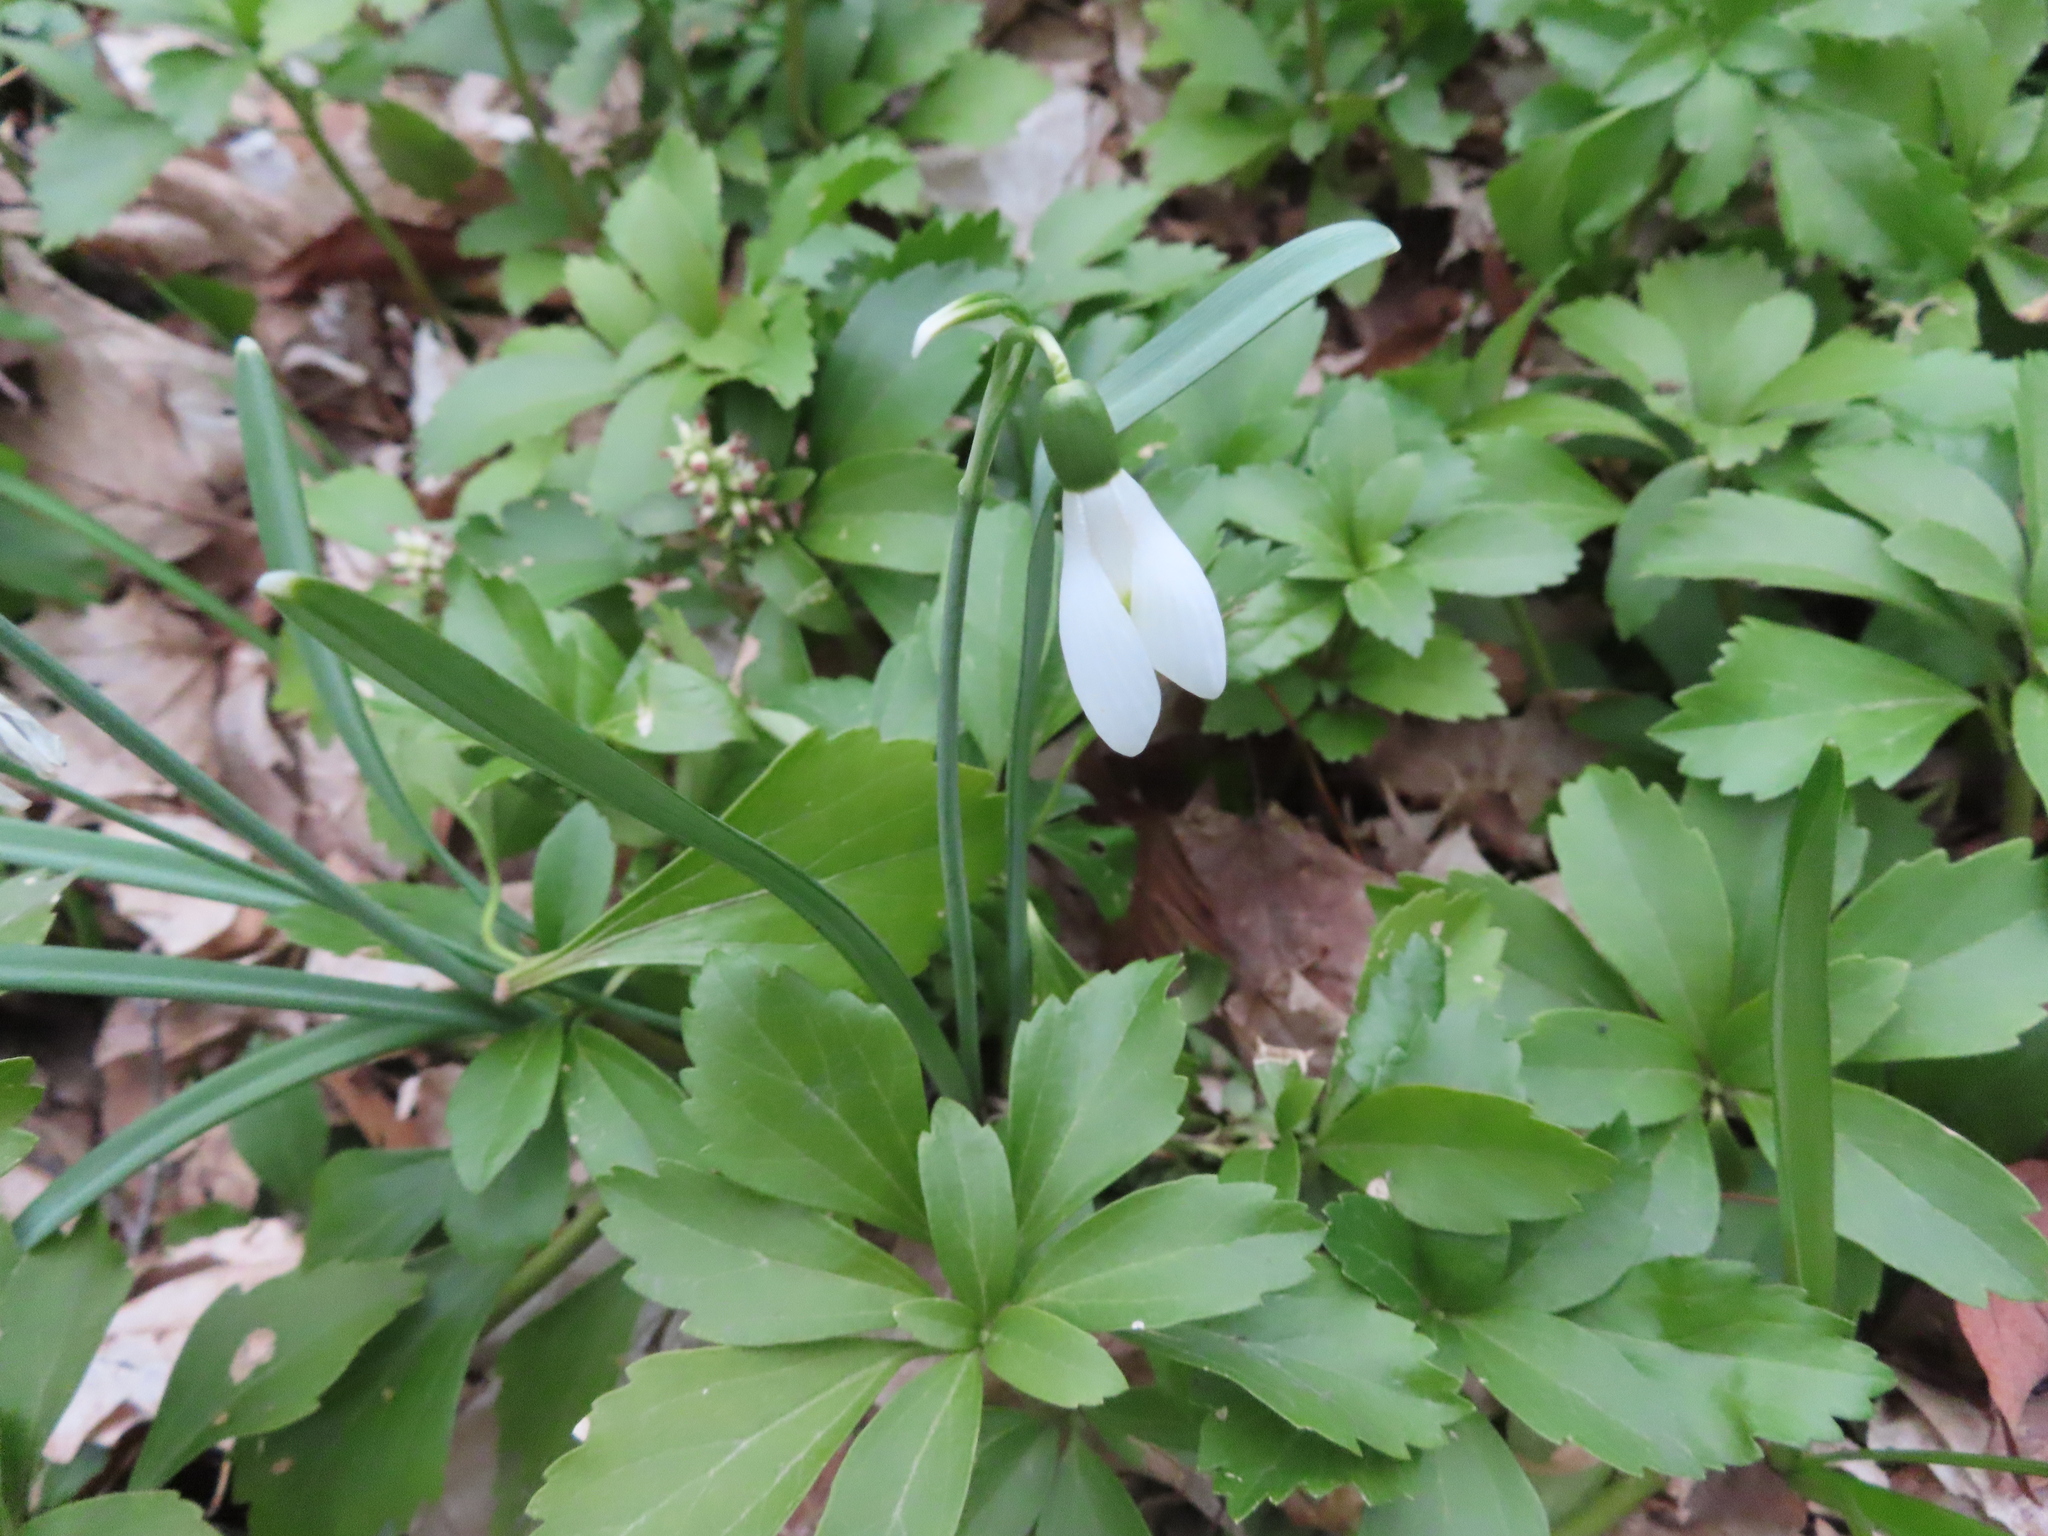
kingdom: Plantae
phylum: Tracheophyta
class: Liliopsida
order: Asparagales
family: Amaryllidaceae
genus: Galanthus
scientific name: Galanthus nivalis
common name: Snowdrop
